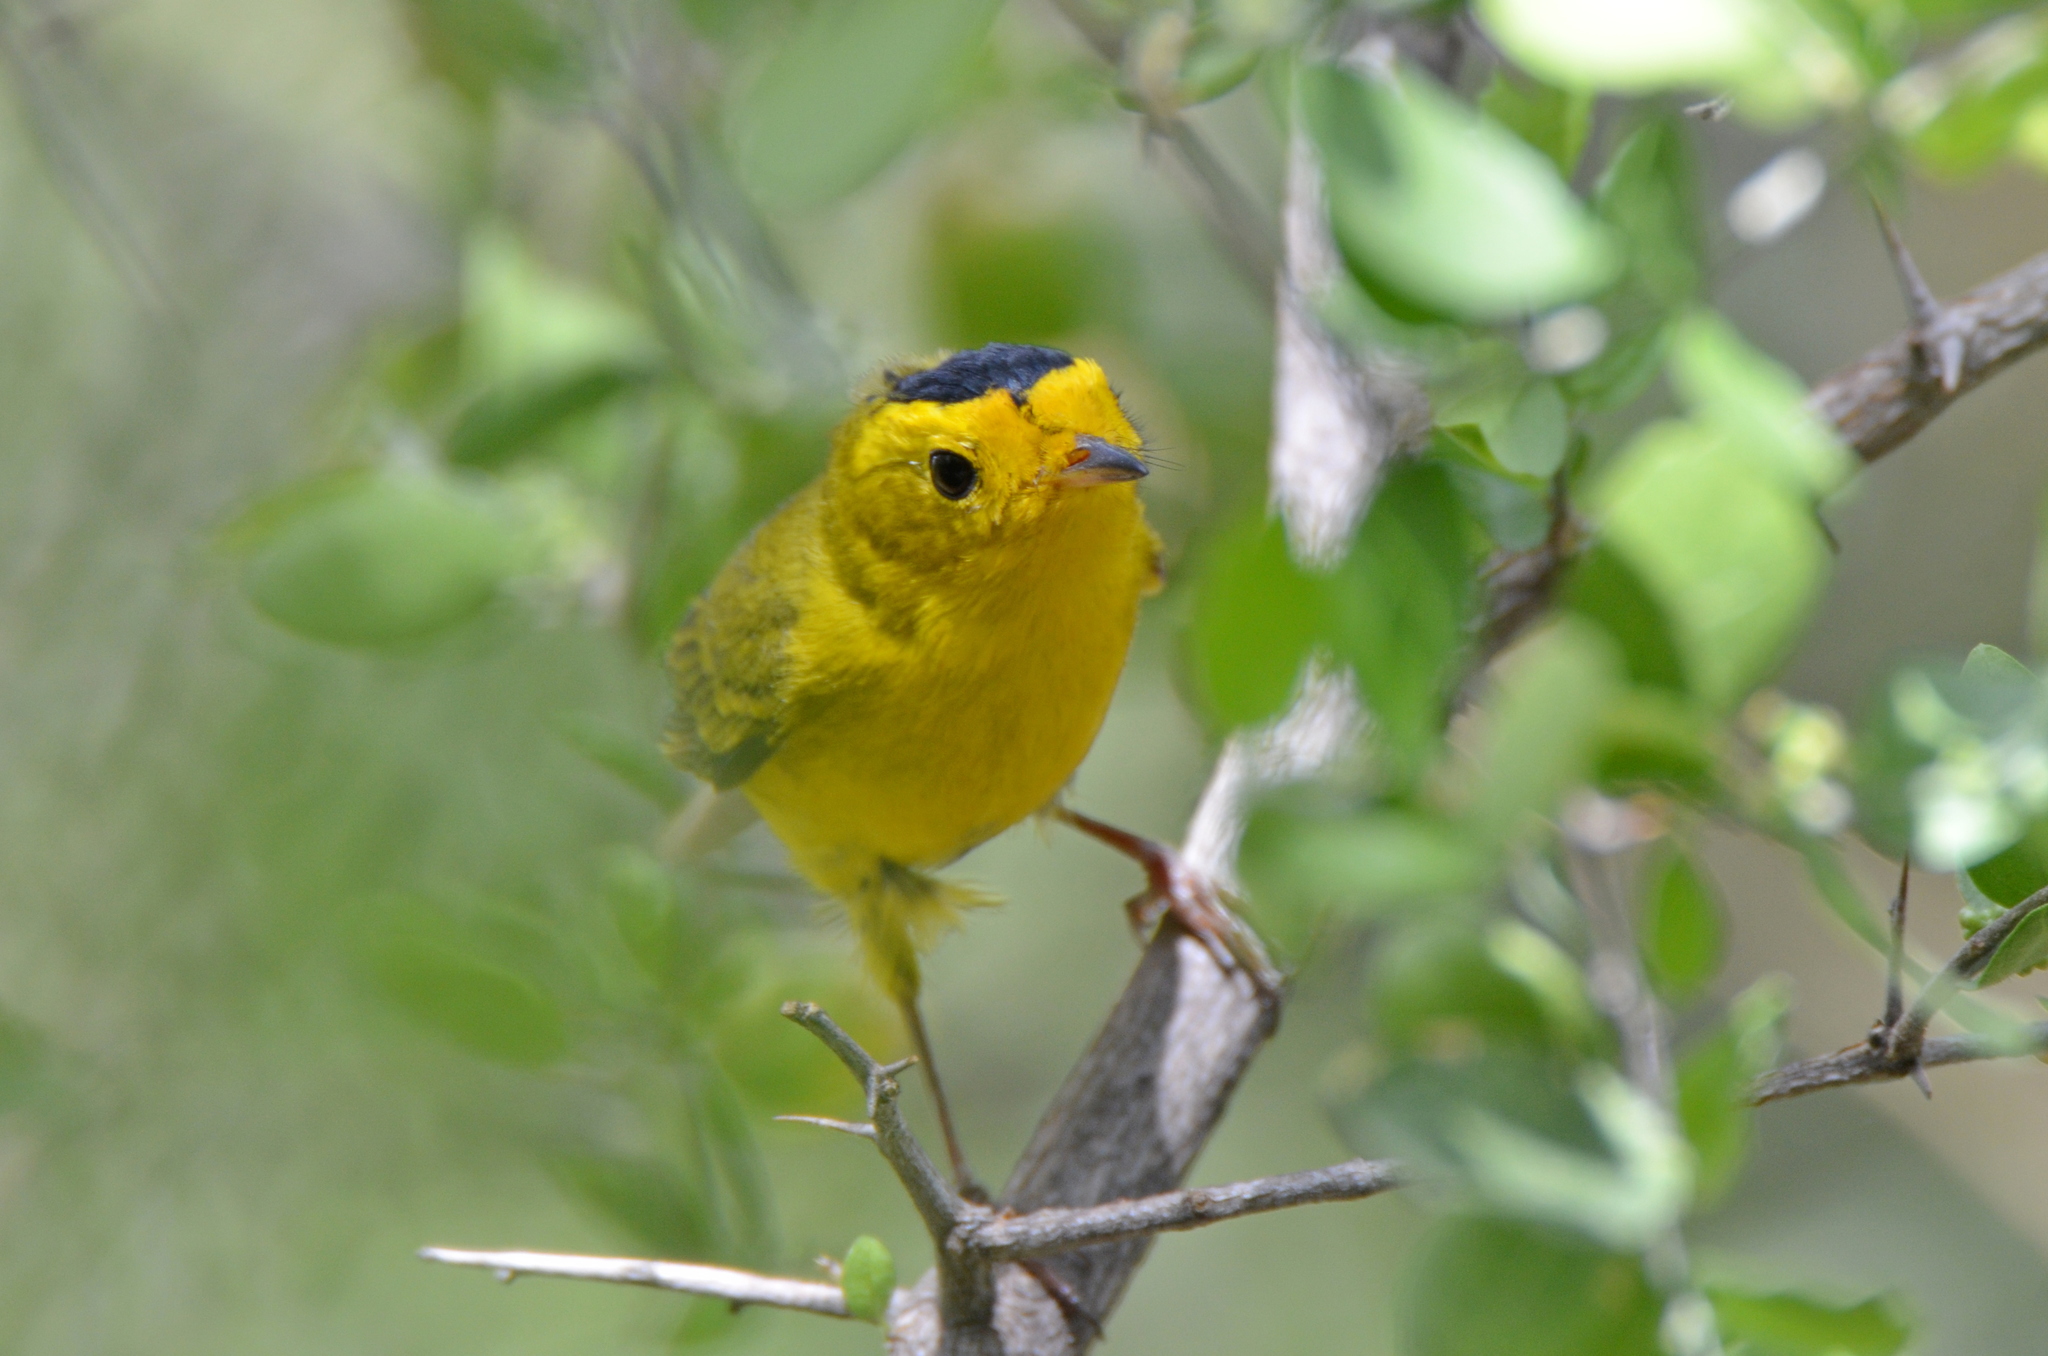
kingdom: Animalia
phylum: Chordata
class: Aves
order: Passeriformes
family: Parulidae
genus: Cardellina
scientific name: Cardellina pusilla
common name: Wilson's warbler
